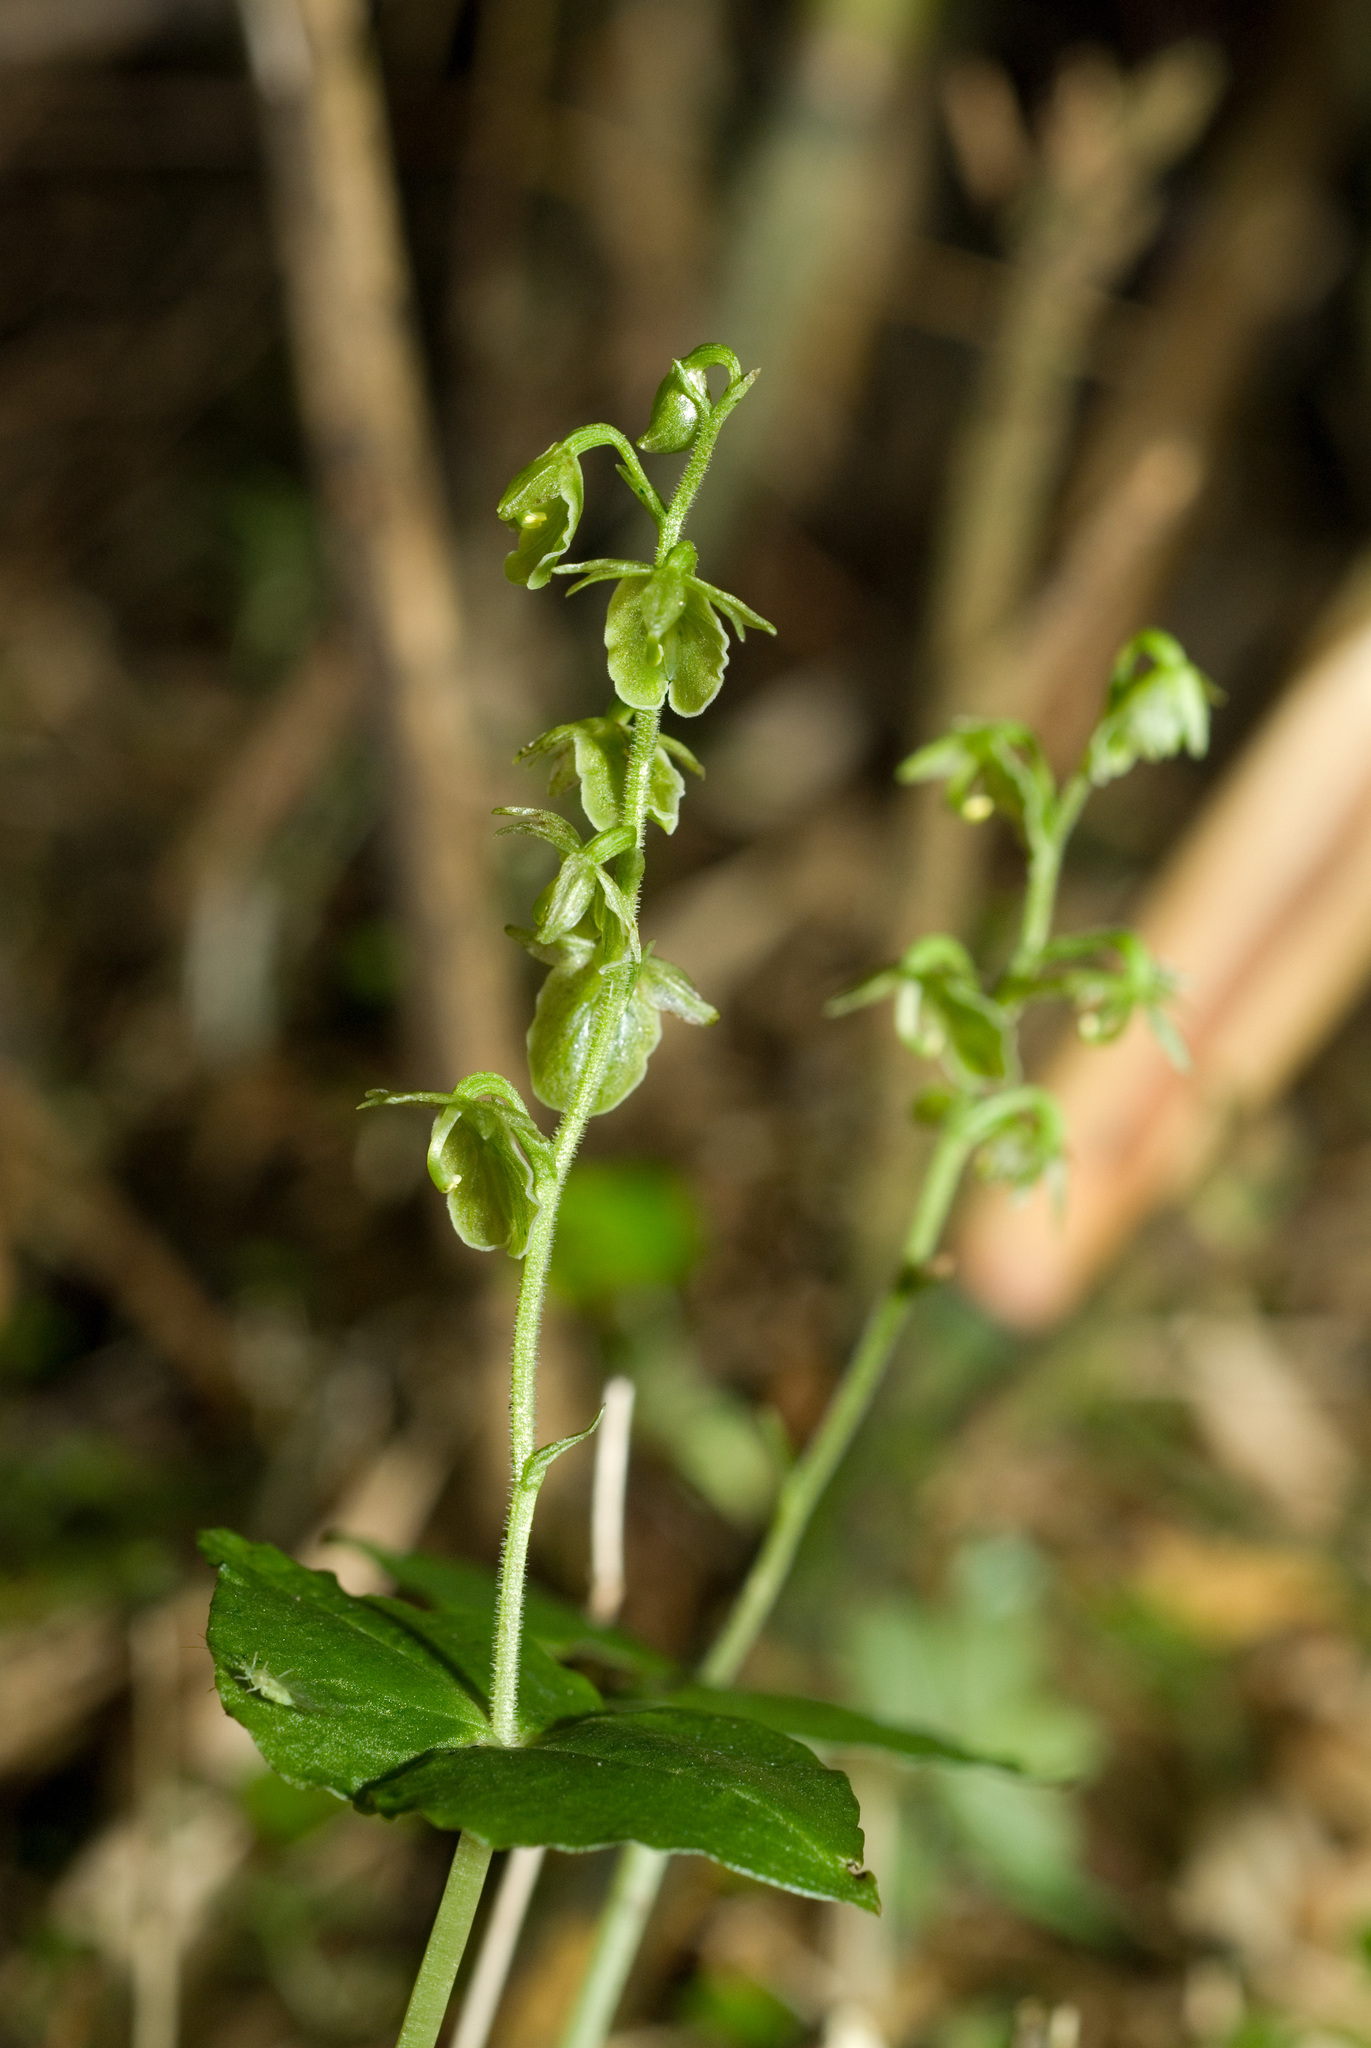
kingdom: Plantae
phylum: Tracheophyta
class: Liliopsida
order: Asparagales
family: Orchidaceae
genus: Neottia
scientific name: Neottia meifongensis
